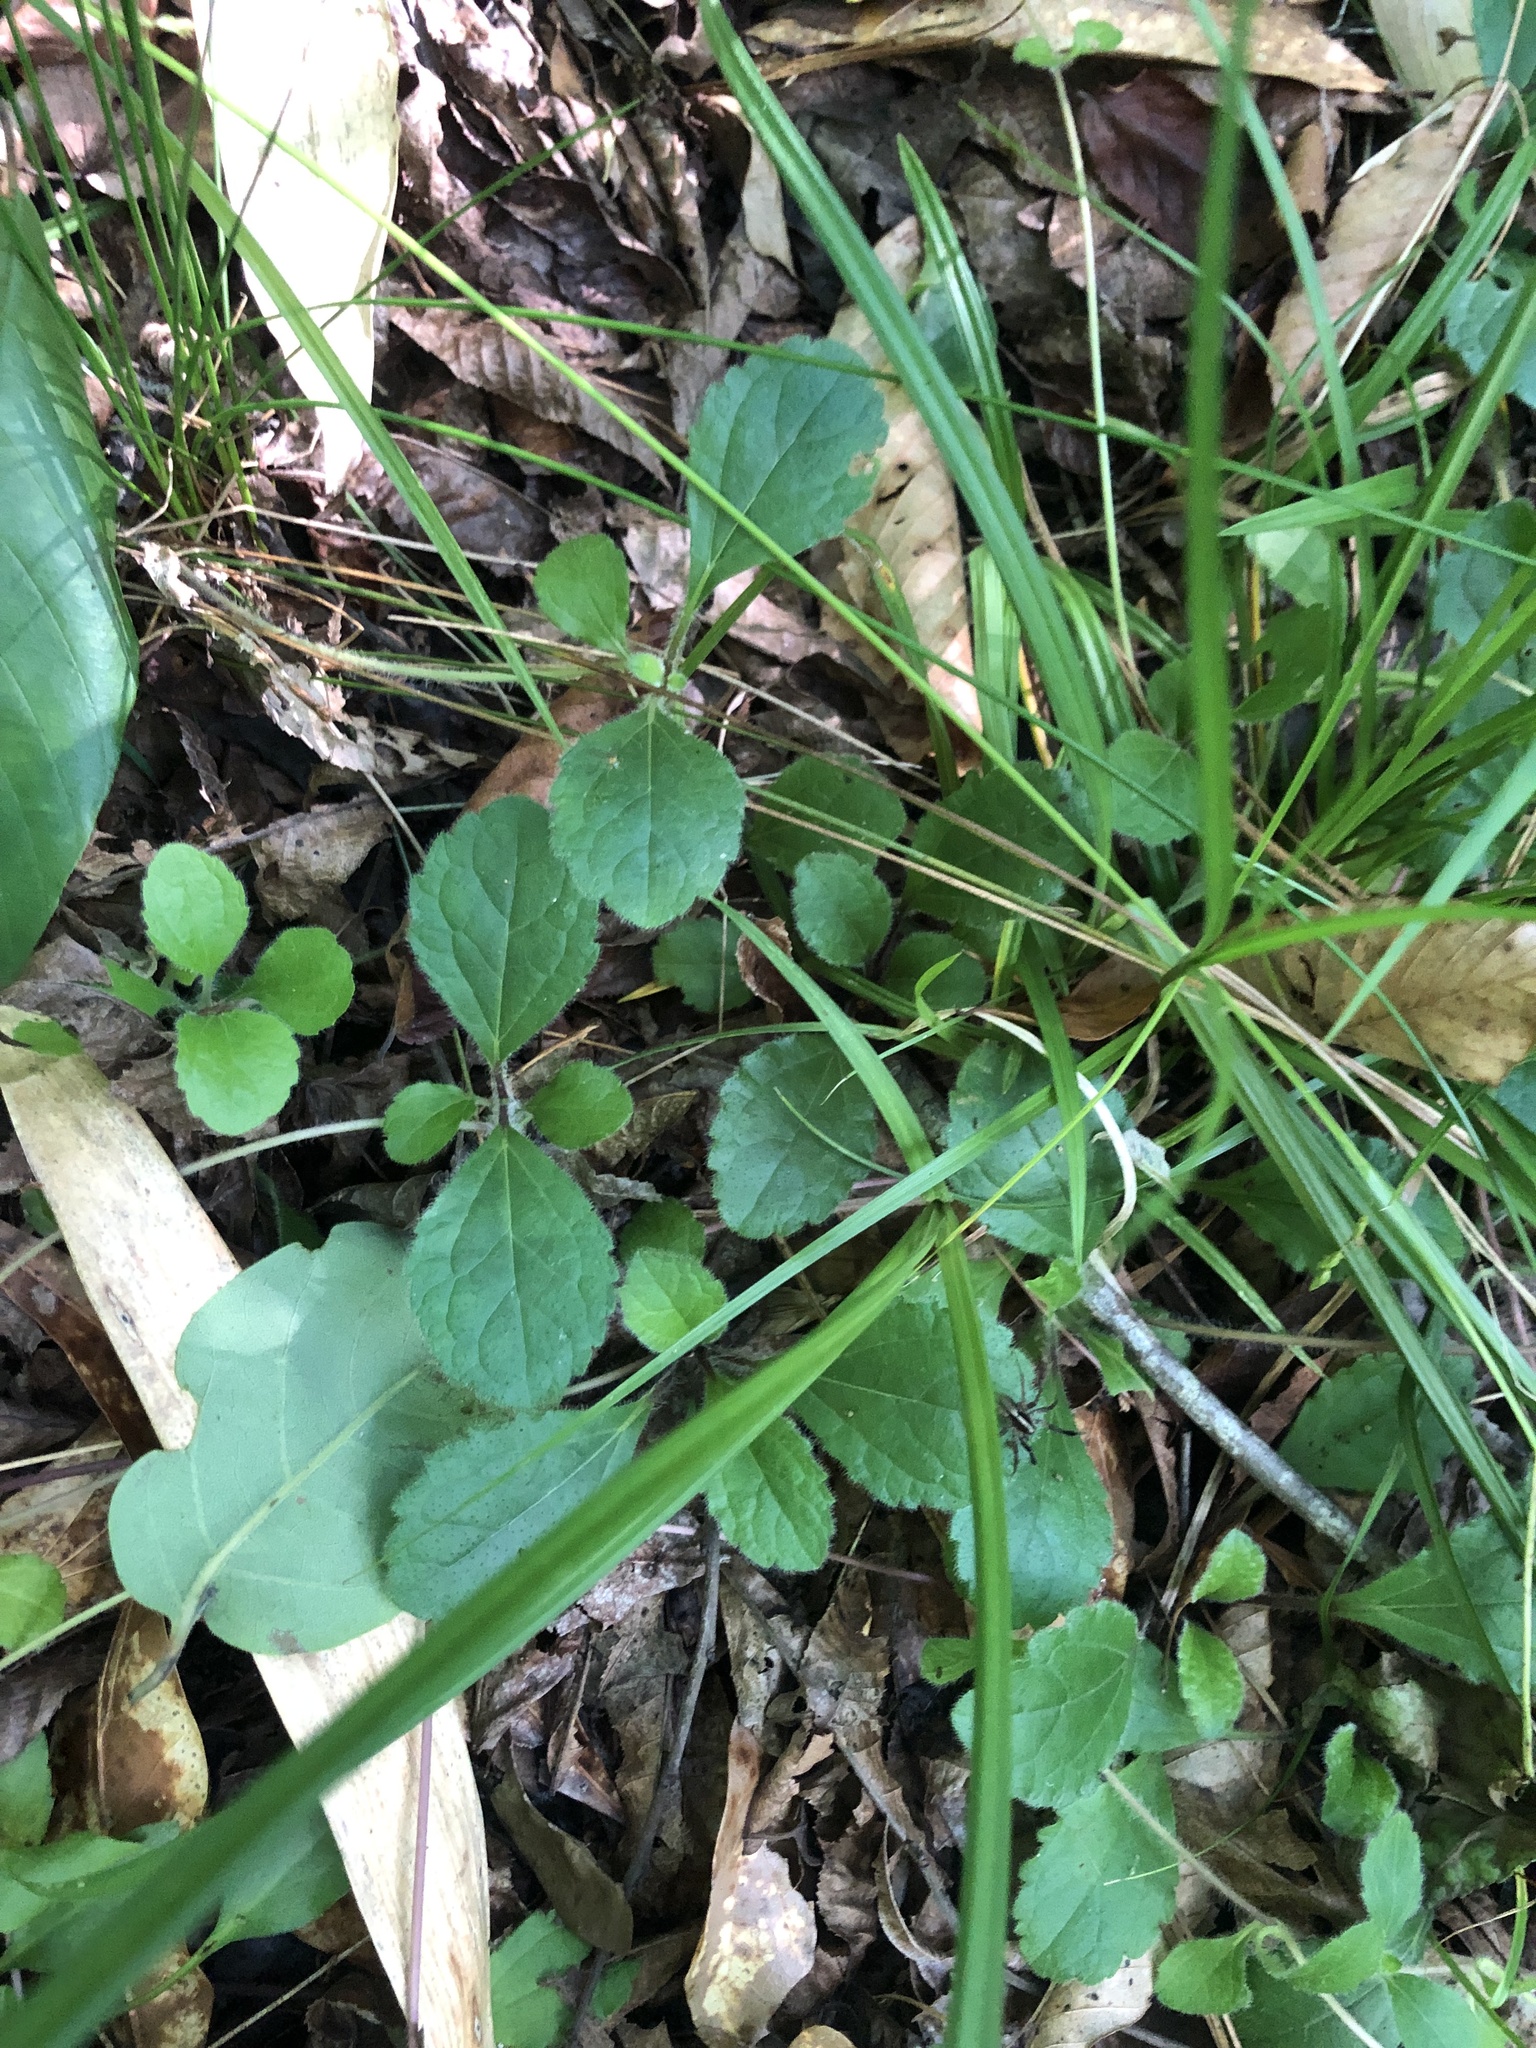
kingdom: Plantae
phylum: Tracheophyta
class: Magnoliopsida
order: Asterales
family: Asteraceae
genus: Chrysogonum
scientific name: Chrysogonum australe
